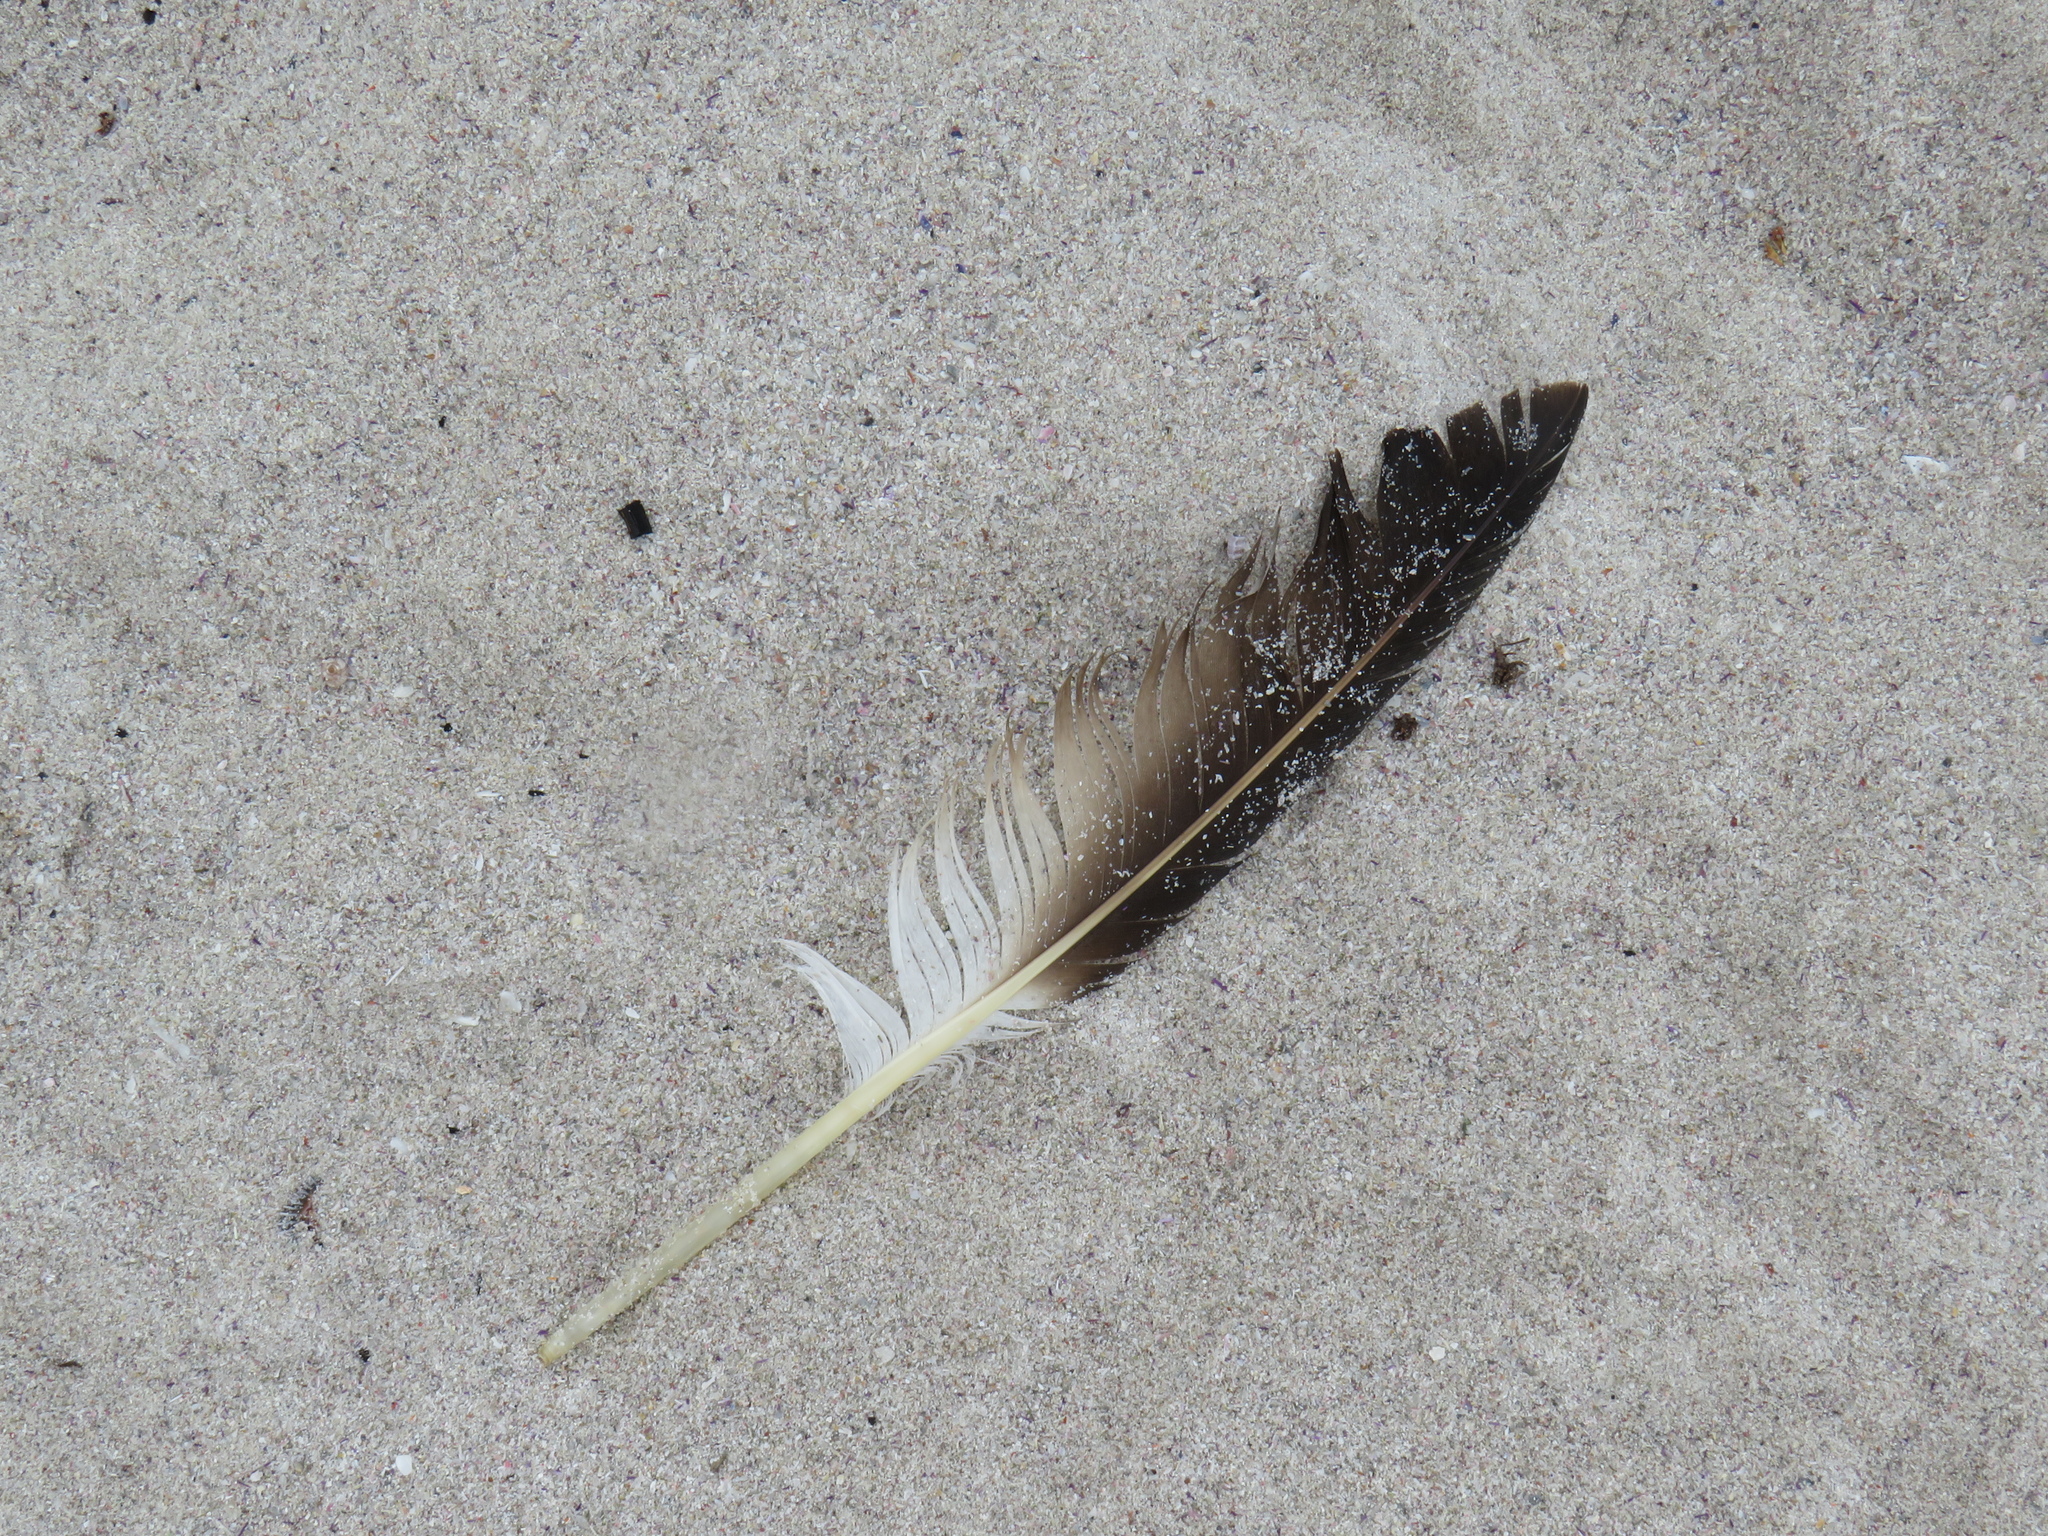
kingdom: Animalia
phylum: Chordata
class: Aves
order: Suliformes
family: Sulidae
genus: Morus
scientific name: Morus capensis
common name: Cape gannet
